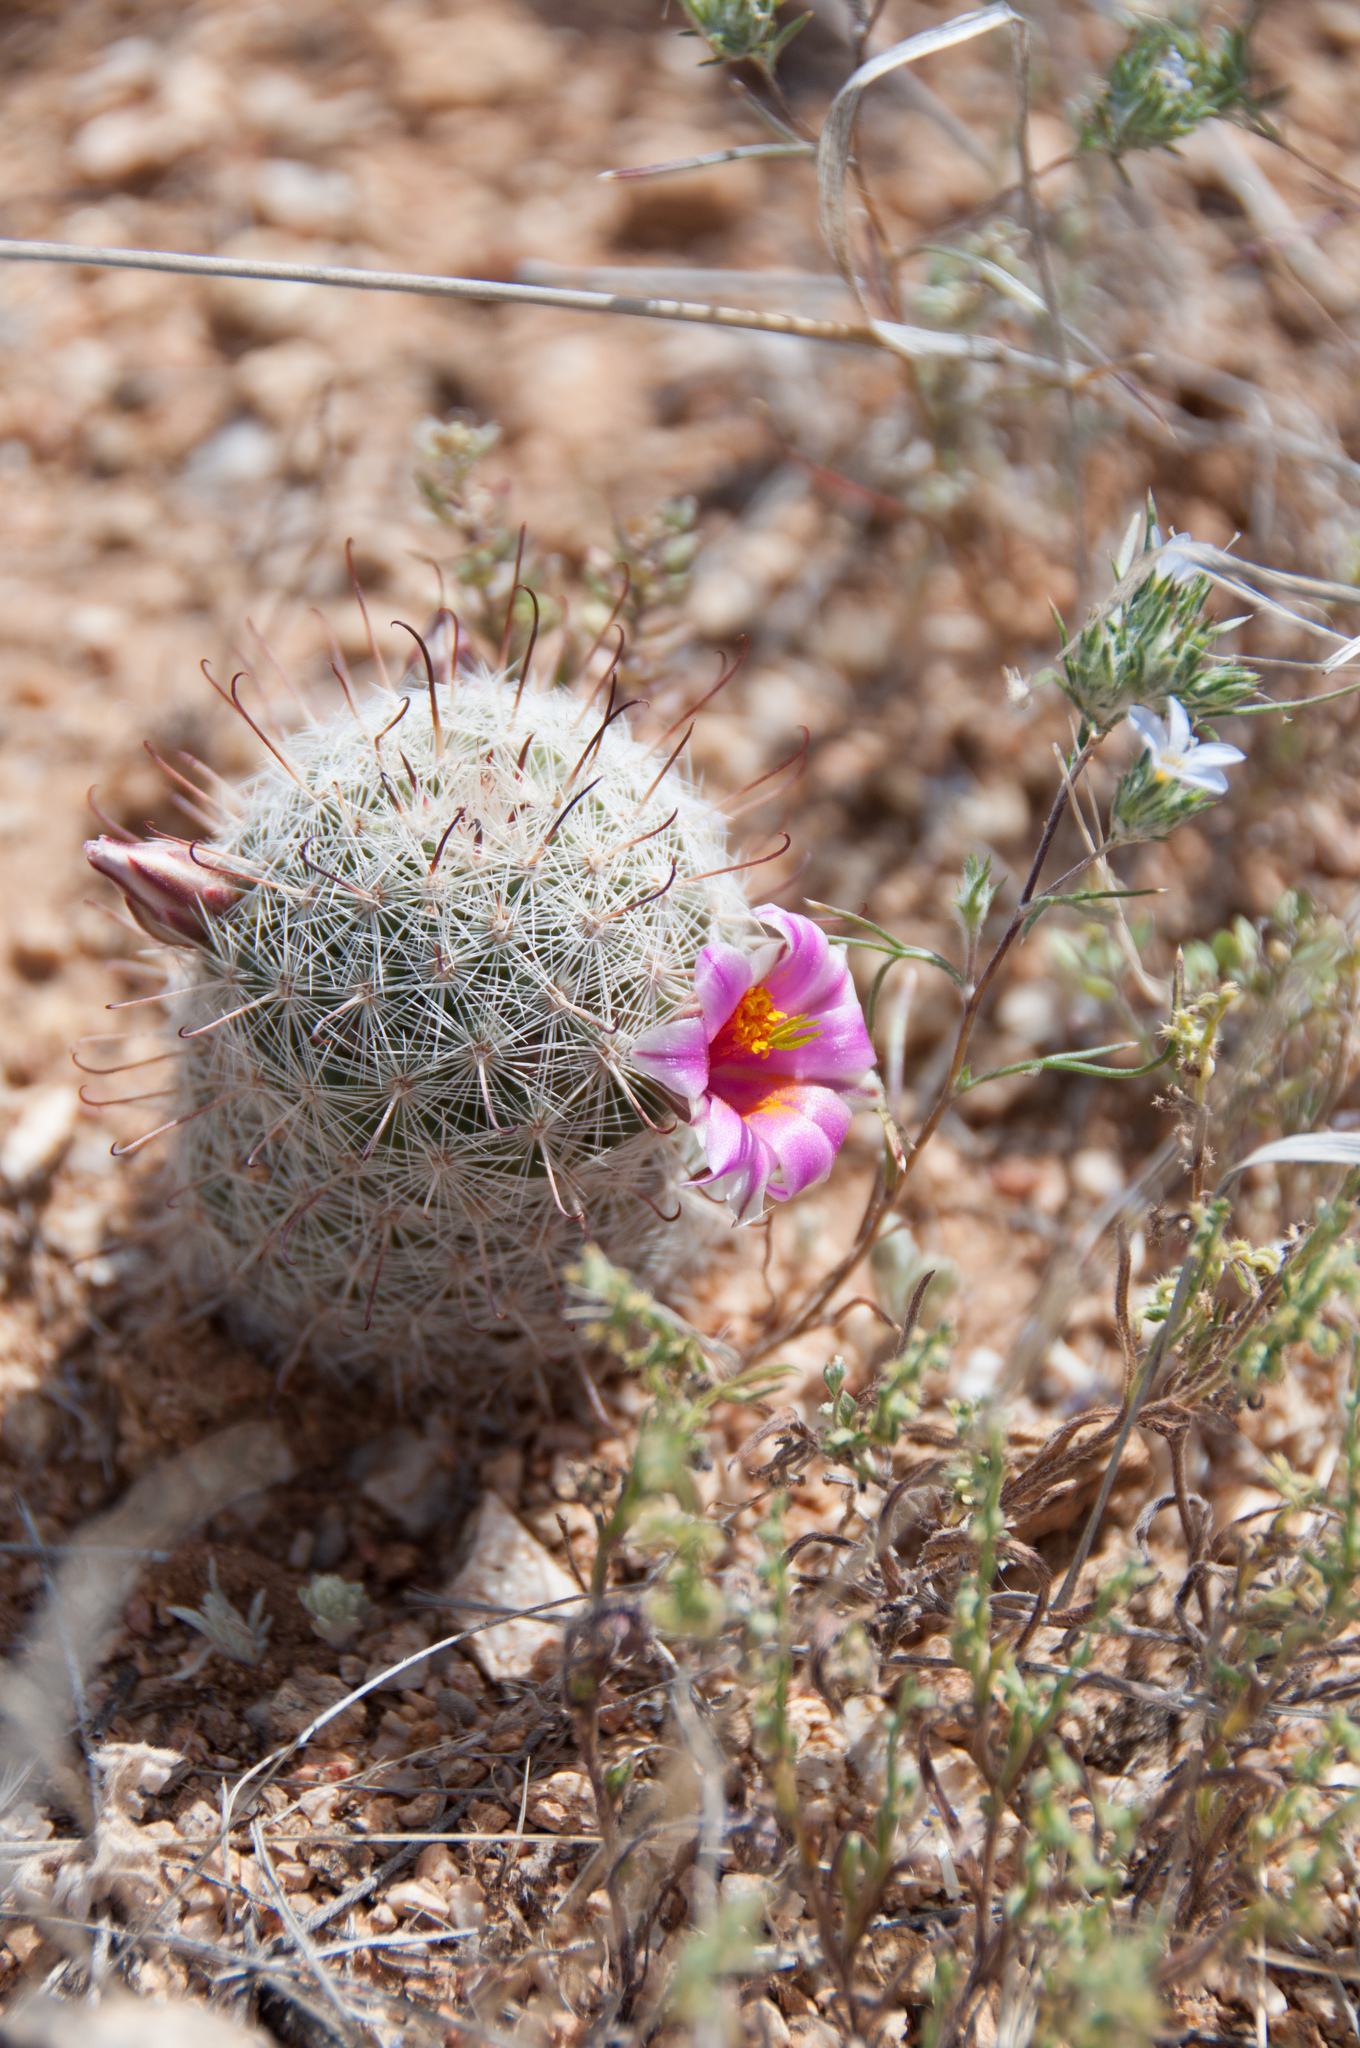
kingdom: Plantae
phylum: Tracheophyta
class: Magnoliopsida
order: Caryophyllales
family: Cactaceae
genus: Cochemiea
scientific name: Cochemiea grahamii
